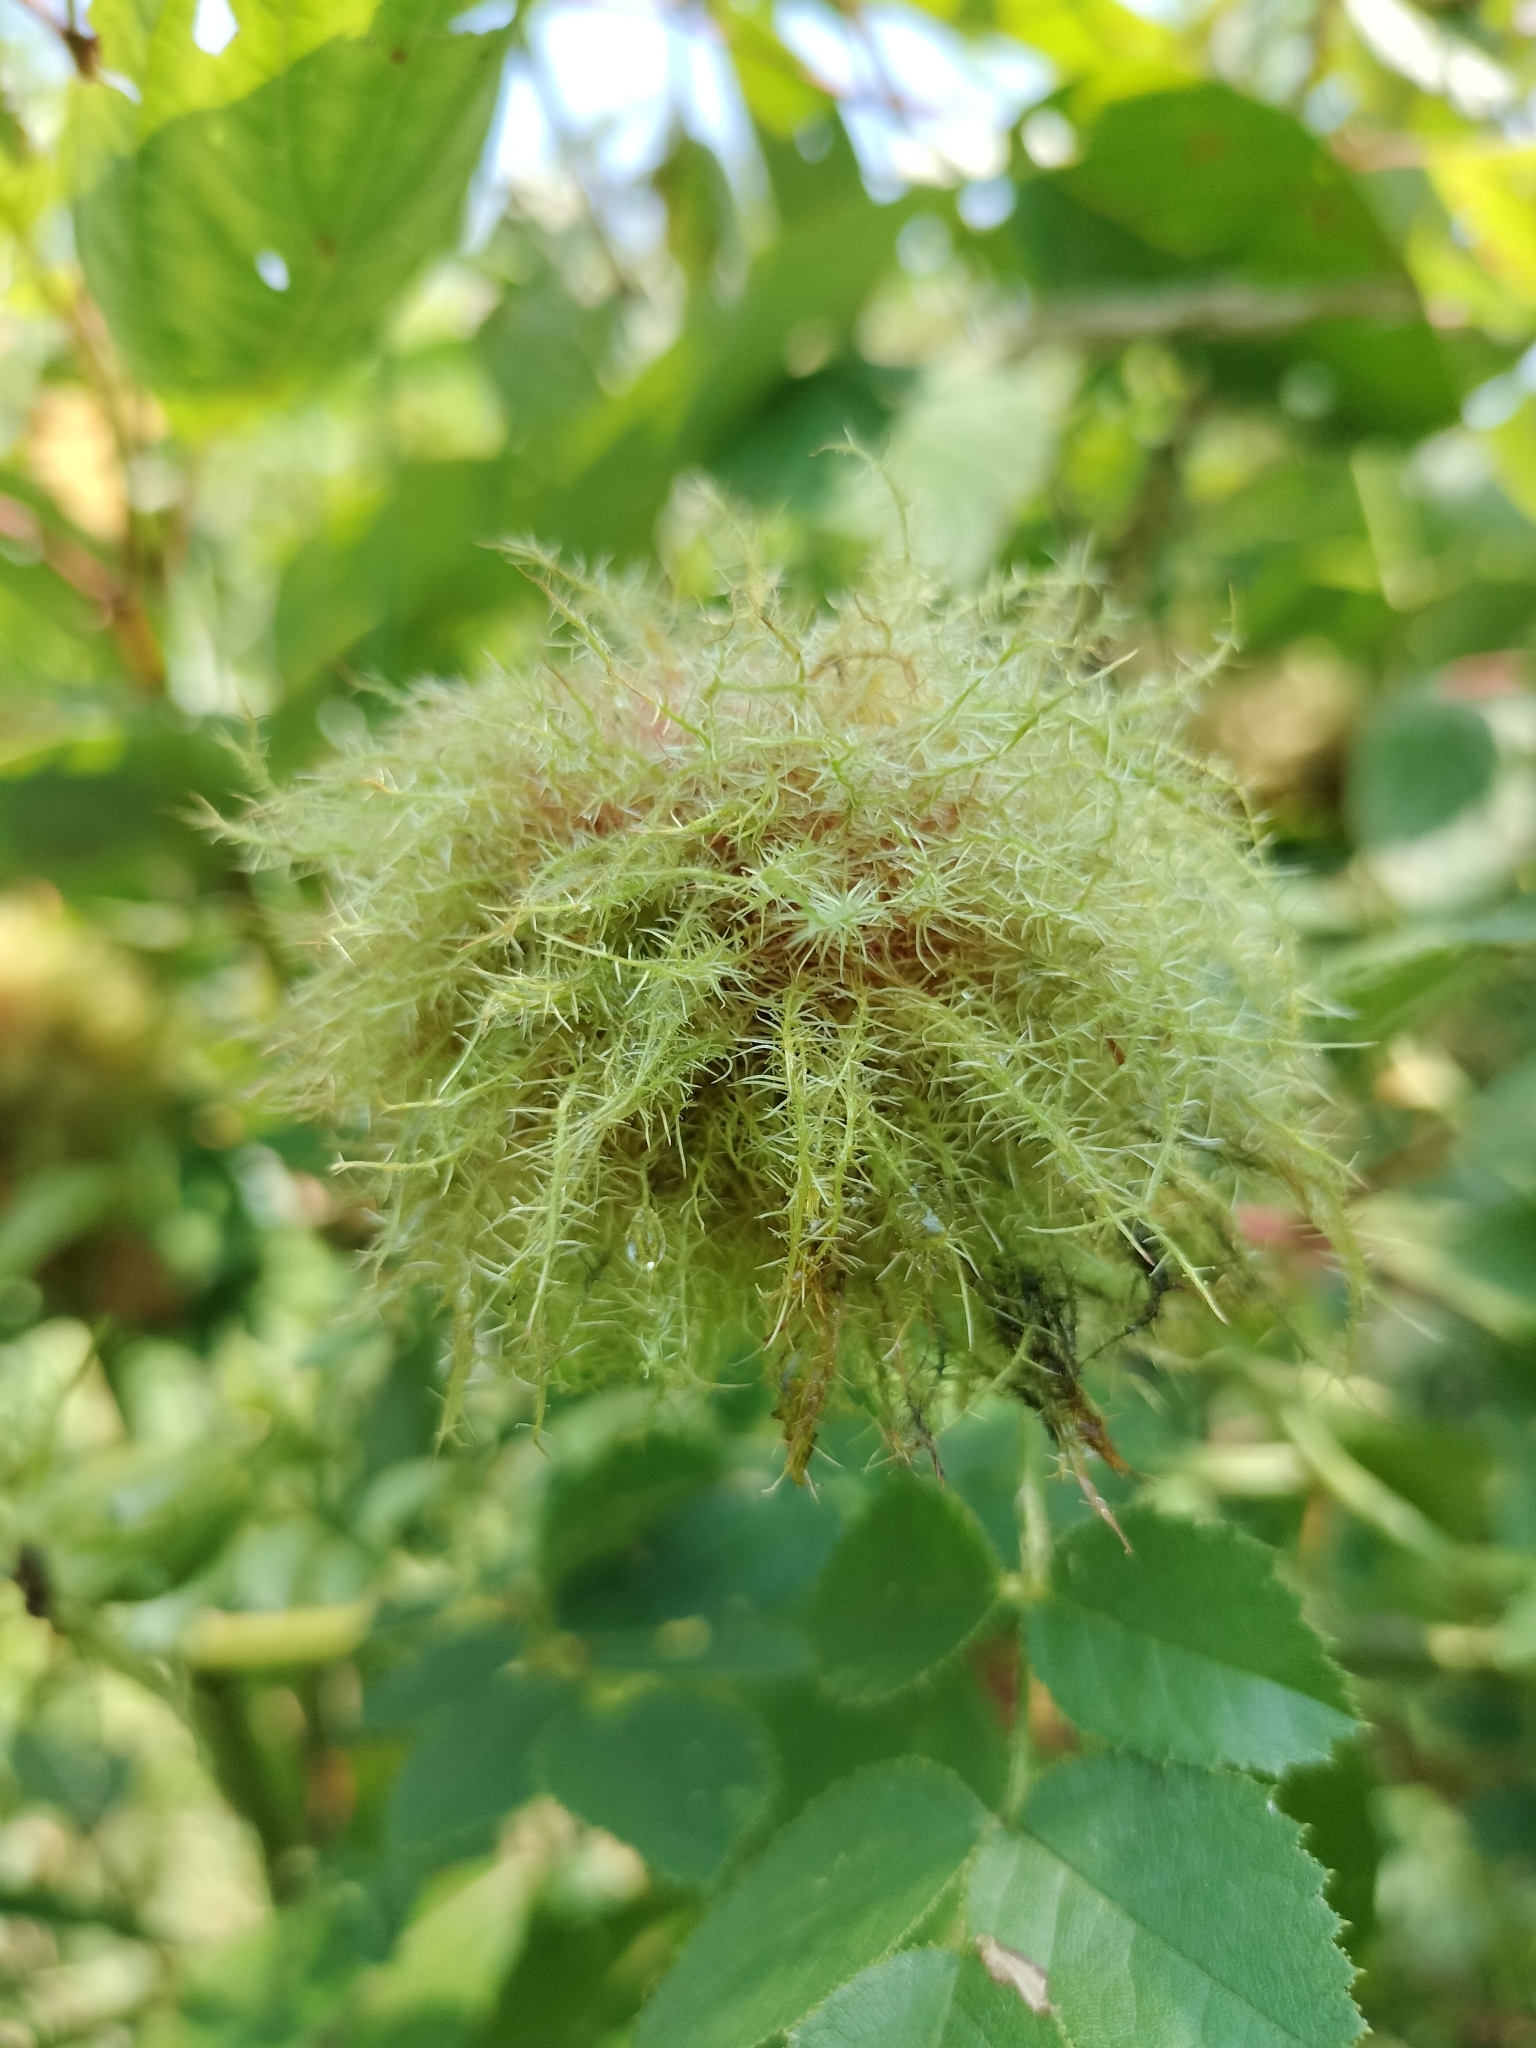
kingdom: Animalia
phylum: Arthropoda
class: Insecta
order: Hymenoptera
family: Cynipidae
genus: Diplolepis
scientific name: Diplolepis rosae
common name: Bedeguar gall
